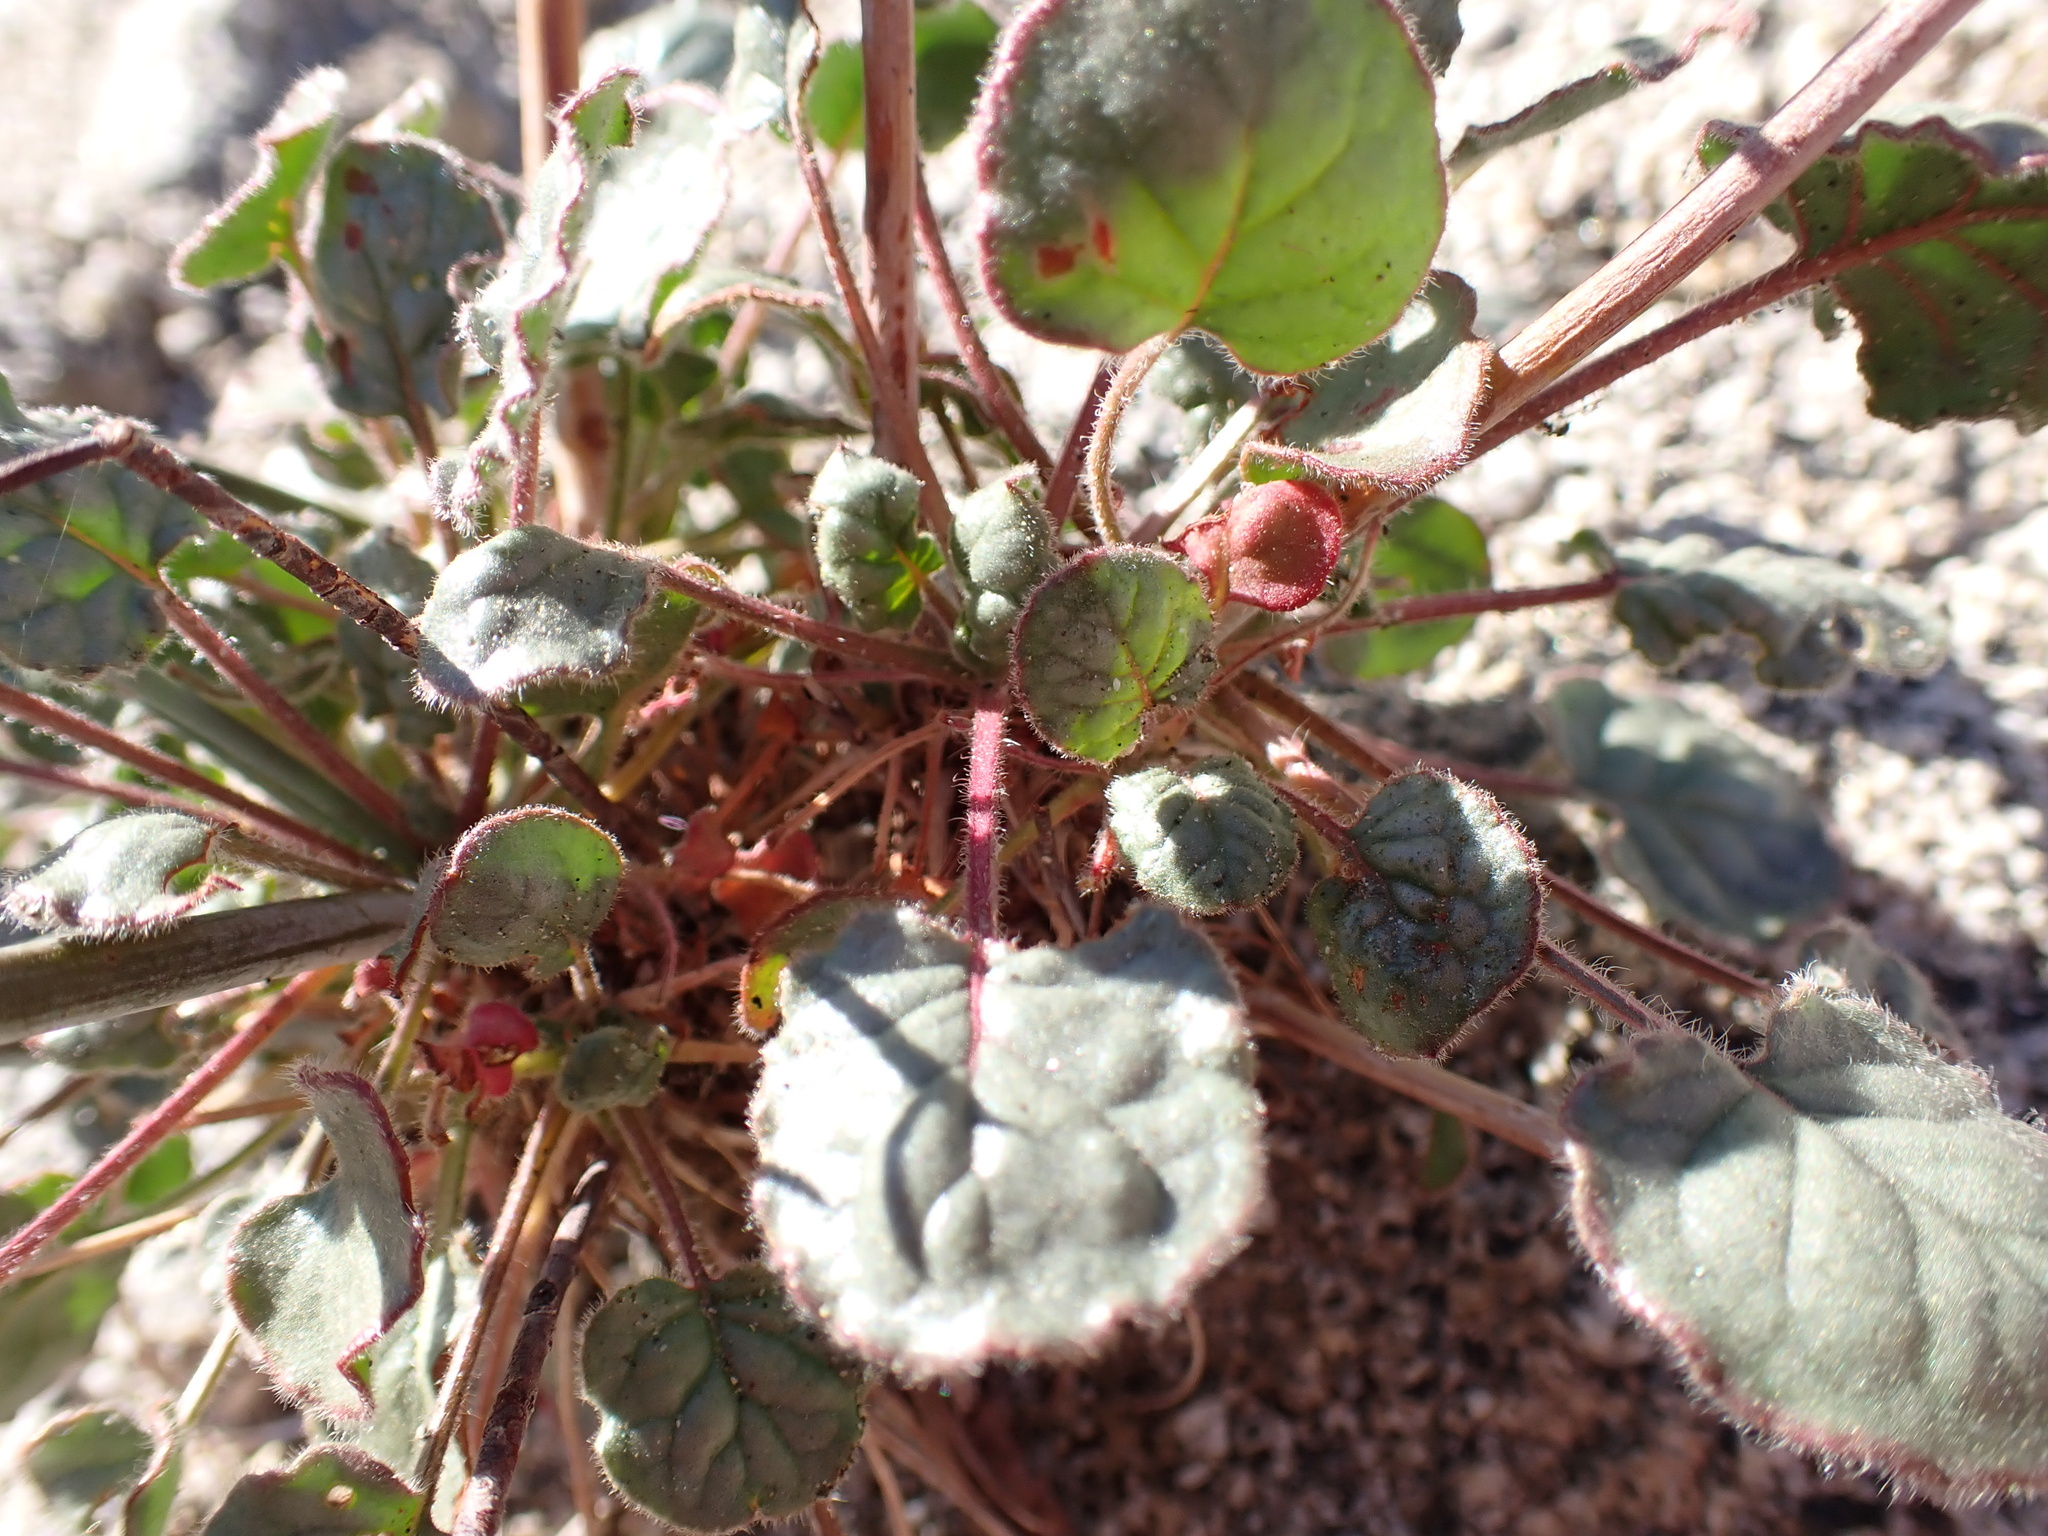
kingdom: Plantae
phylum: Tracheophyta
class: Magnoliopsida
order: Caryophyllales
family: Polygonaceae
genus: Eriogonum
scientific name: Eriogonum inflatum
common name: Desert trumpet
